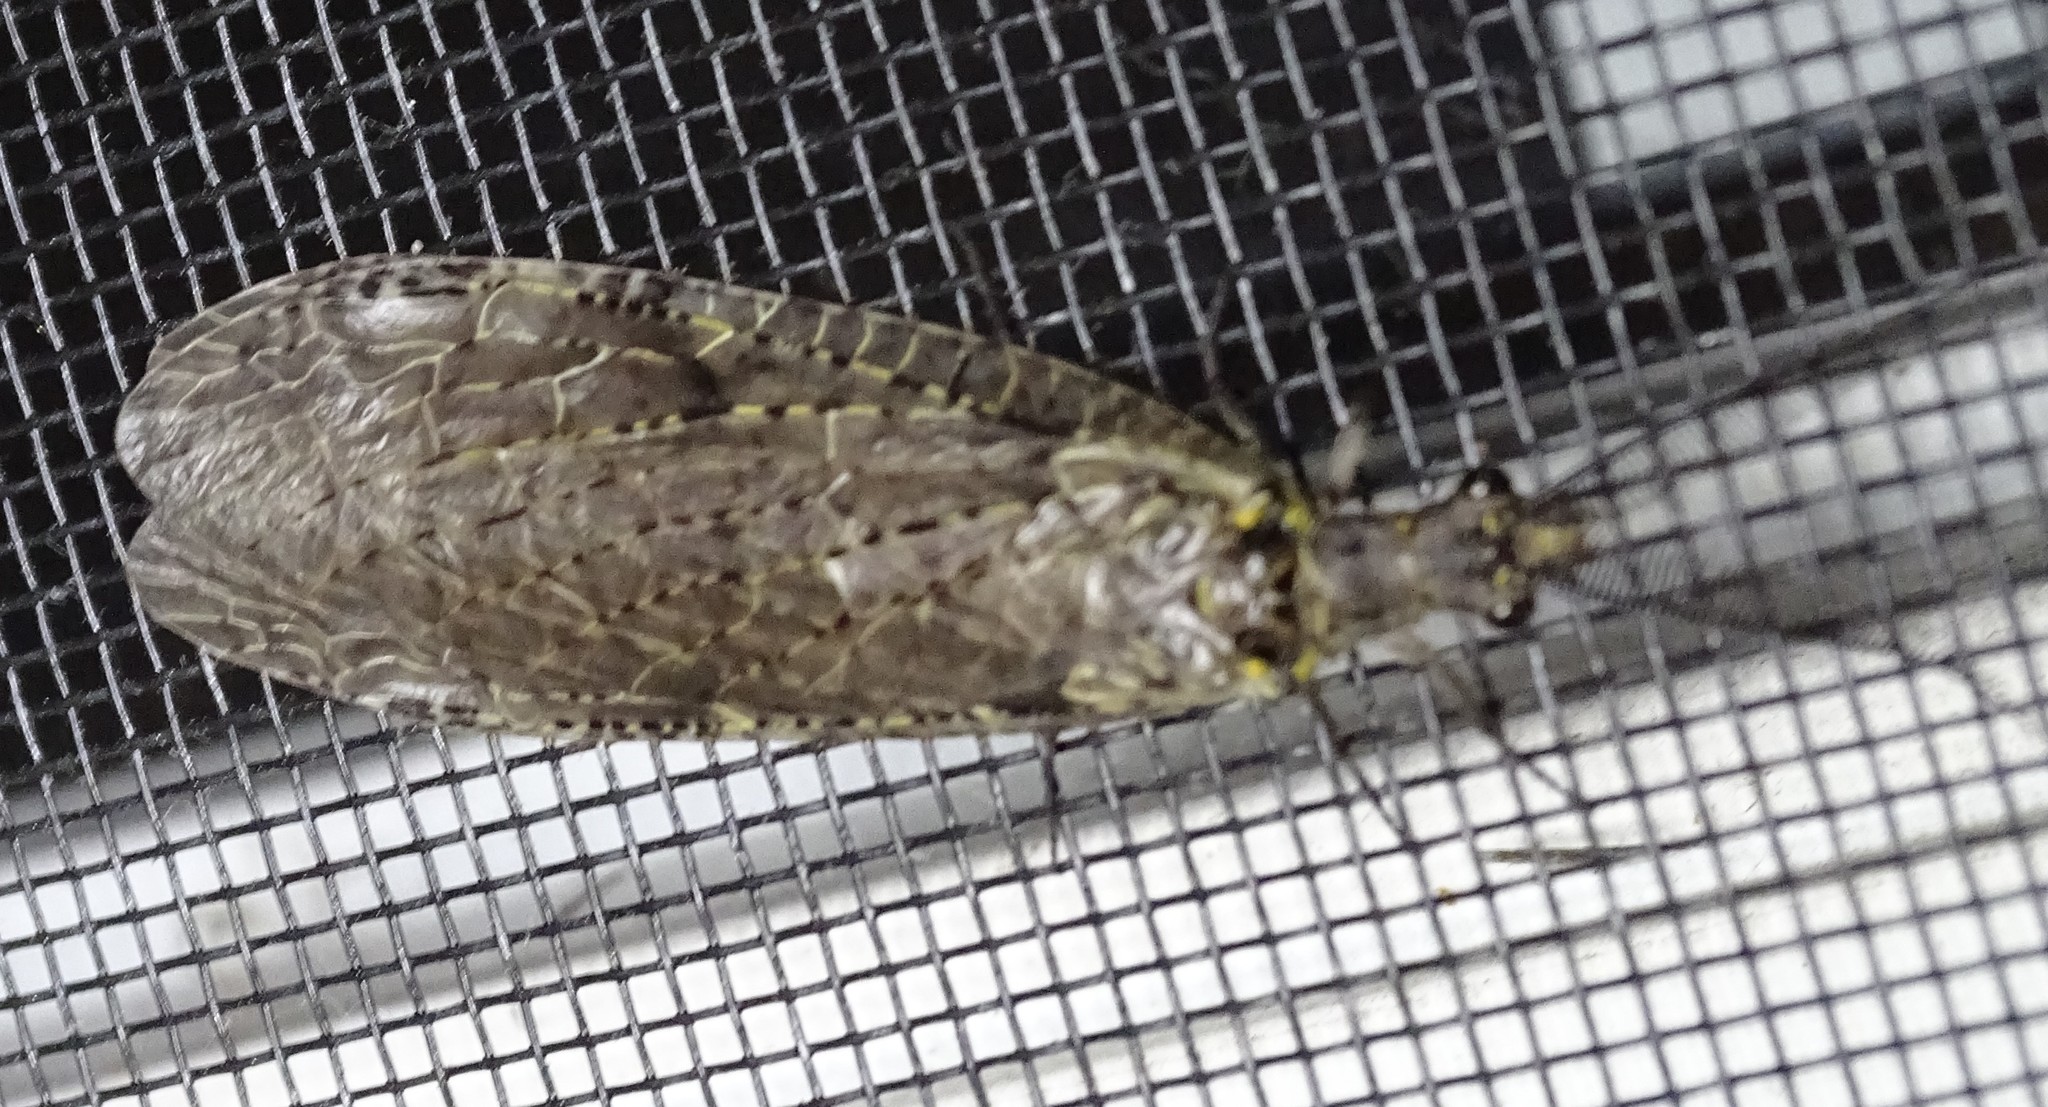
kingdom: Animalia
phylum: Arthropoda
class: Insecta
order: Megaloptera
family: Corydalidae
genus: Chauliodes
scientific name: Chauliodes rastricornis
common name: Spring fishfly
